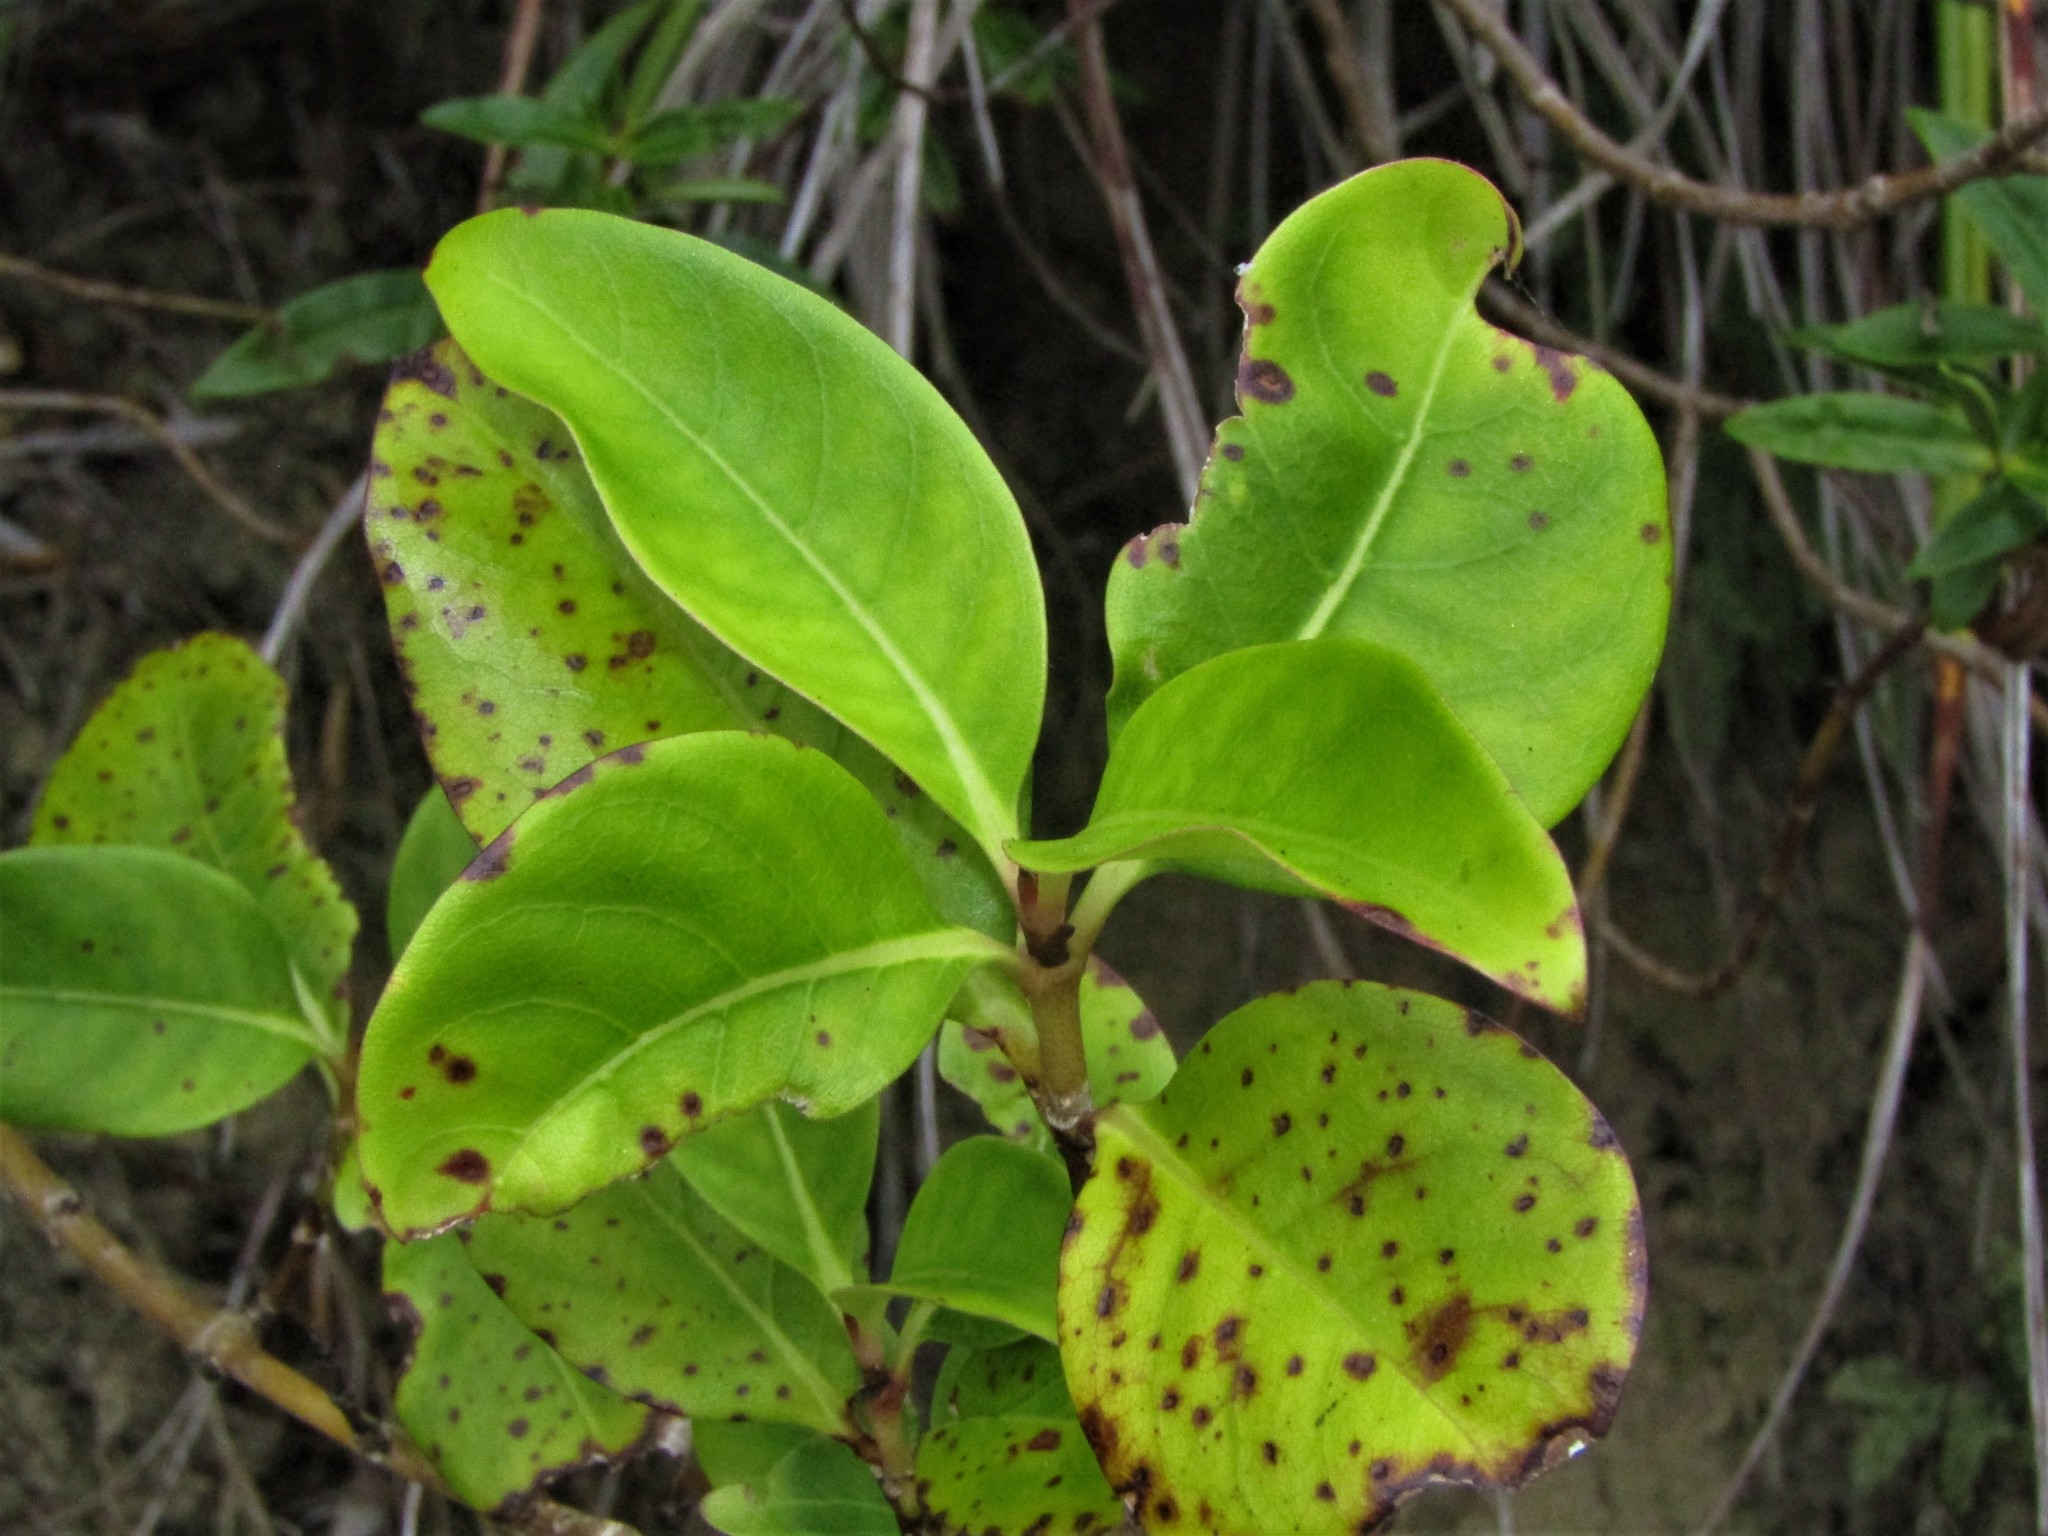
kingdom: Plantae
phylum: Tracheophyta
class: Magnoliopsida
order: Gentianales
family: Rubiaceae
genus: Coprosma
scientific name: Coprosma macrocarpa
